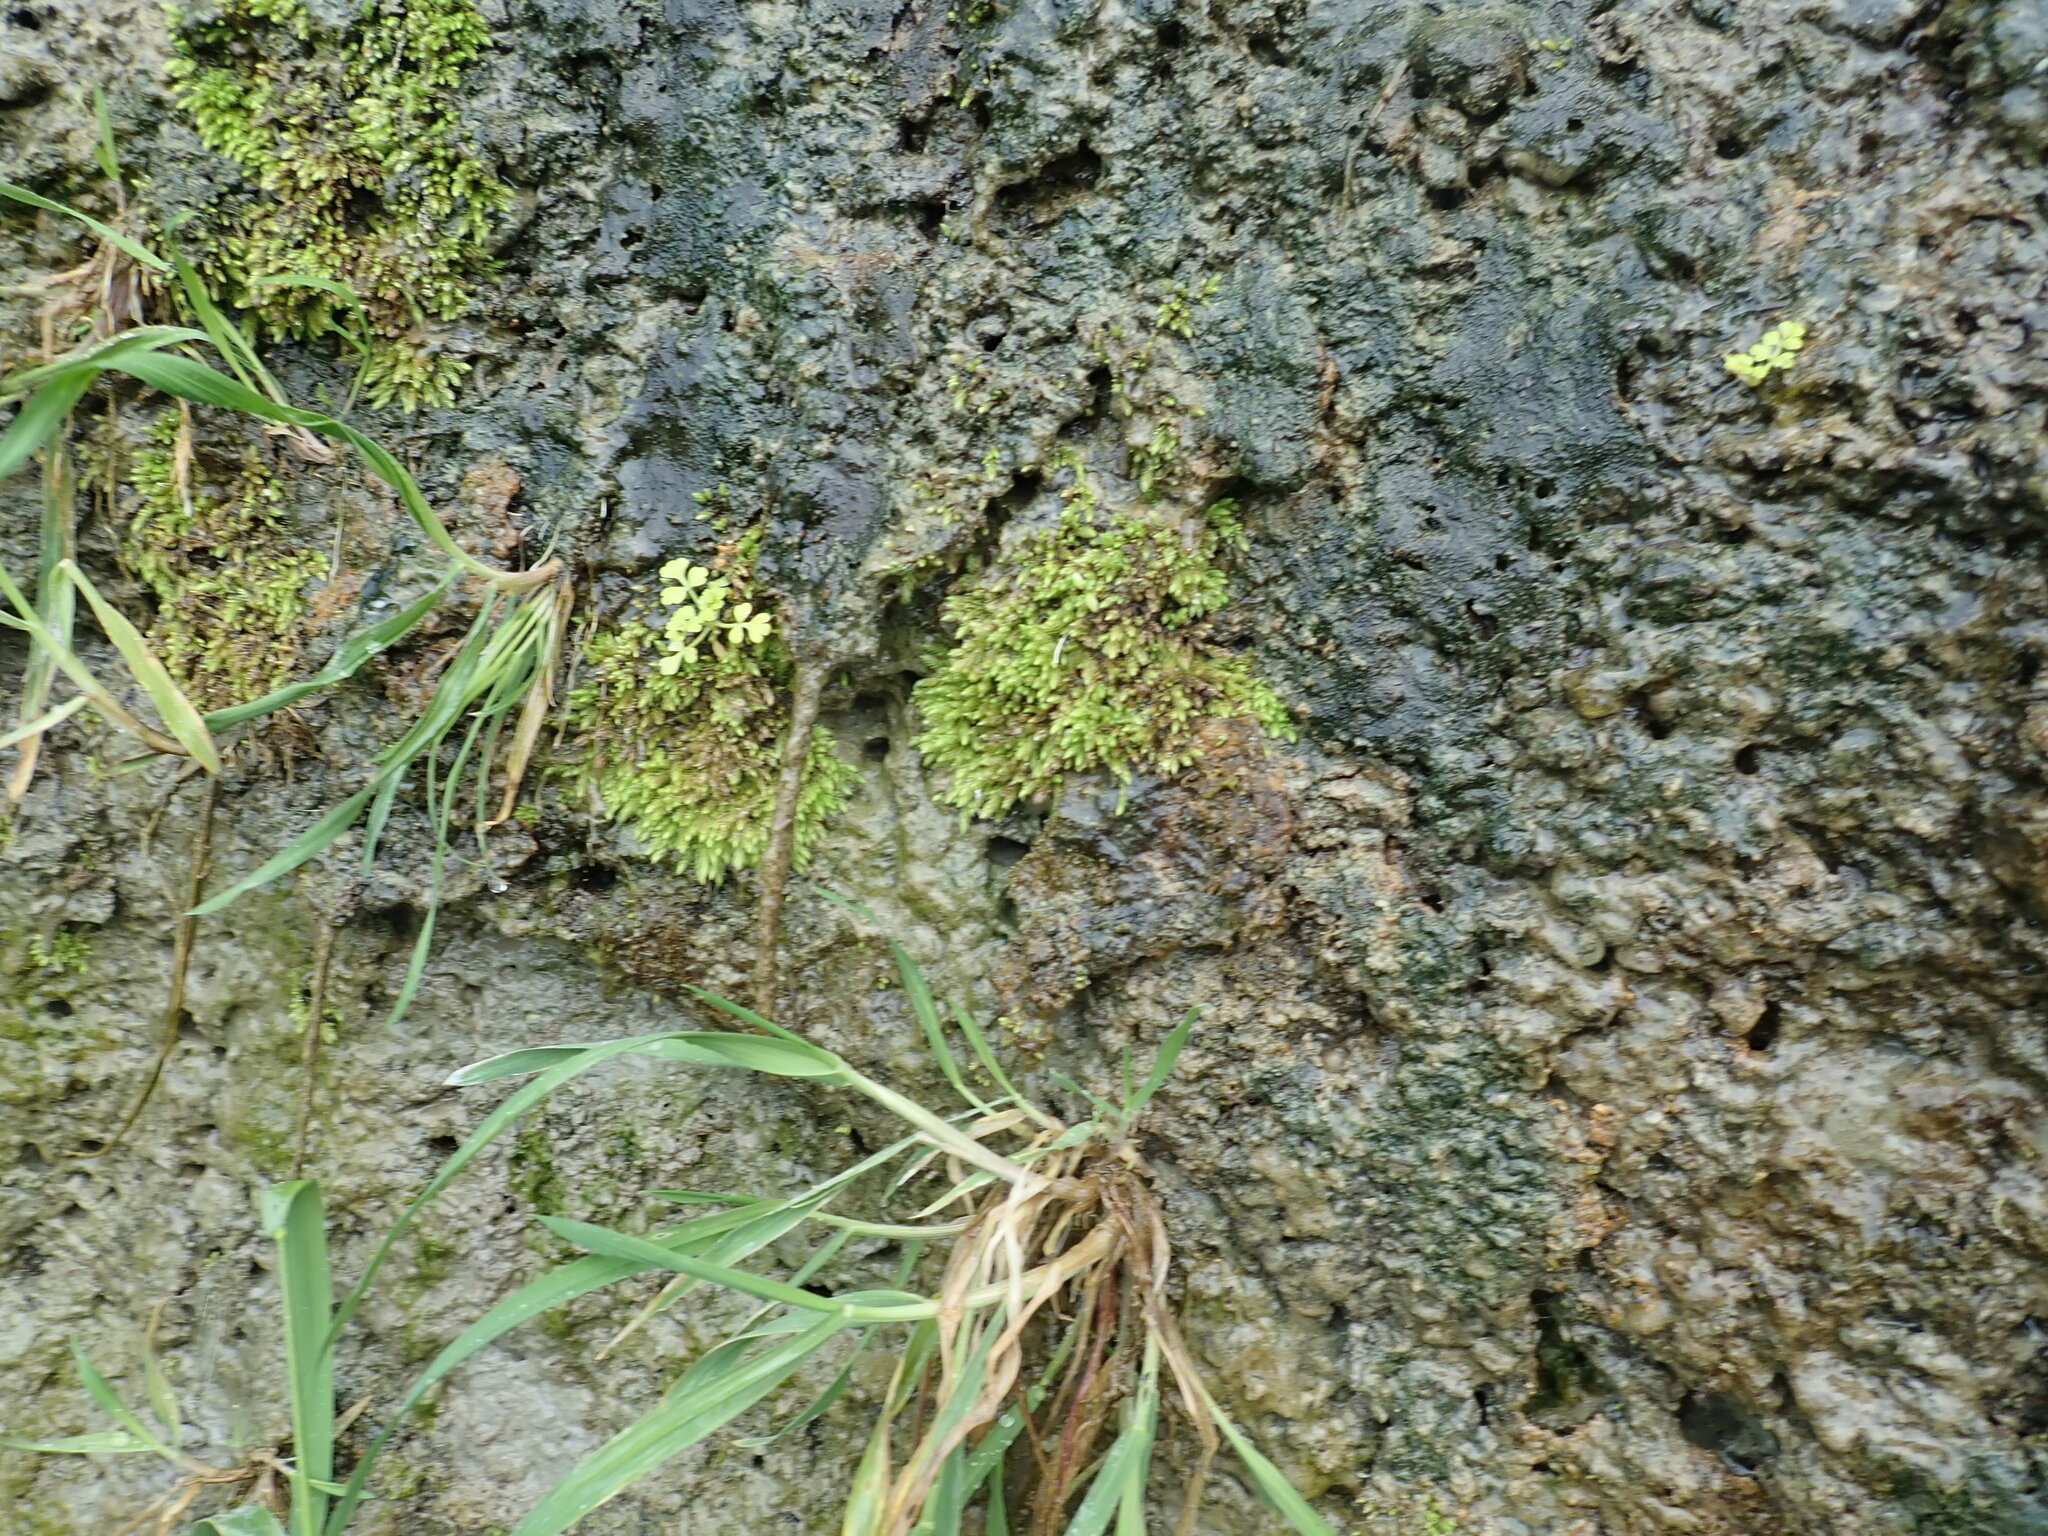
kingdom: Plantae
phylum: Tracheophyta
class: Magnoliopsida
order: Apiales
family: Apiaceae
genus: Apium
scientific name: Apium prostratum
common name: Prostrate marshwort
